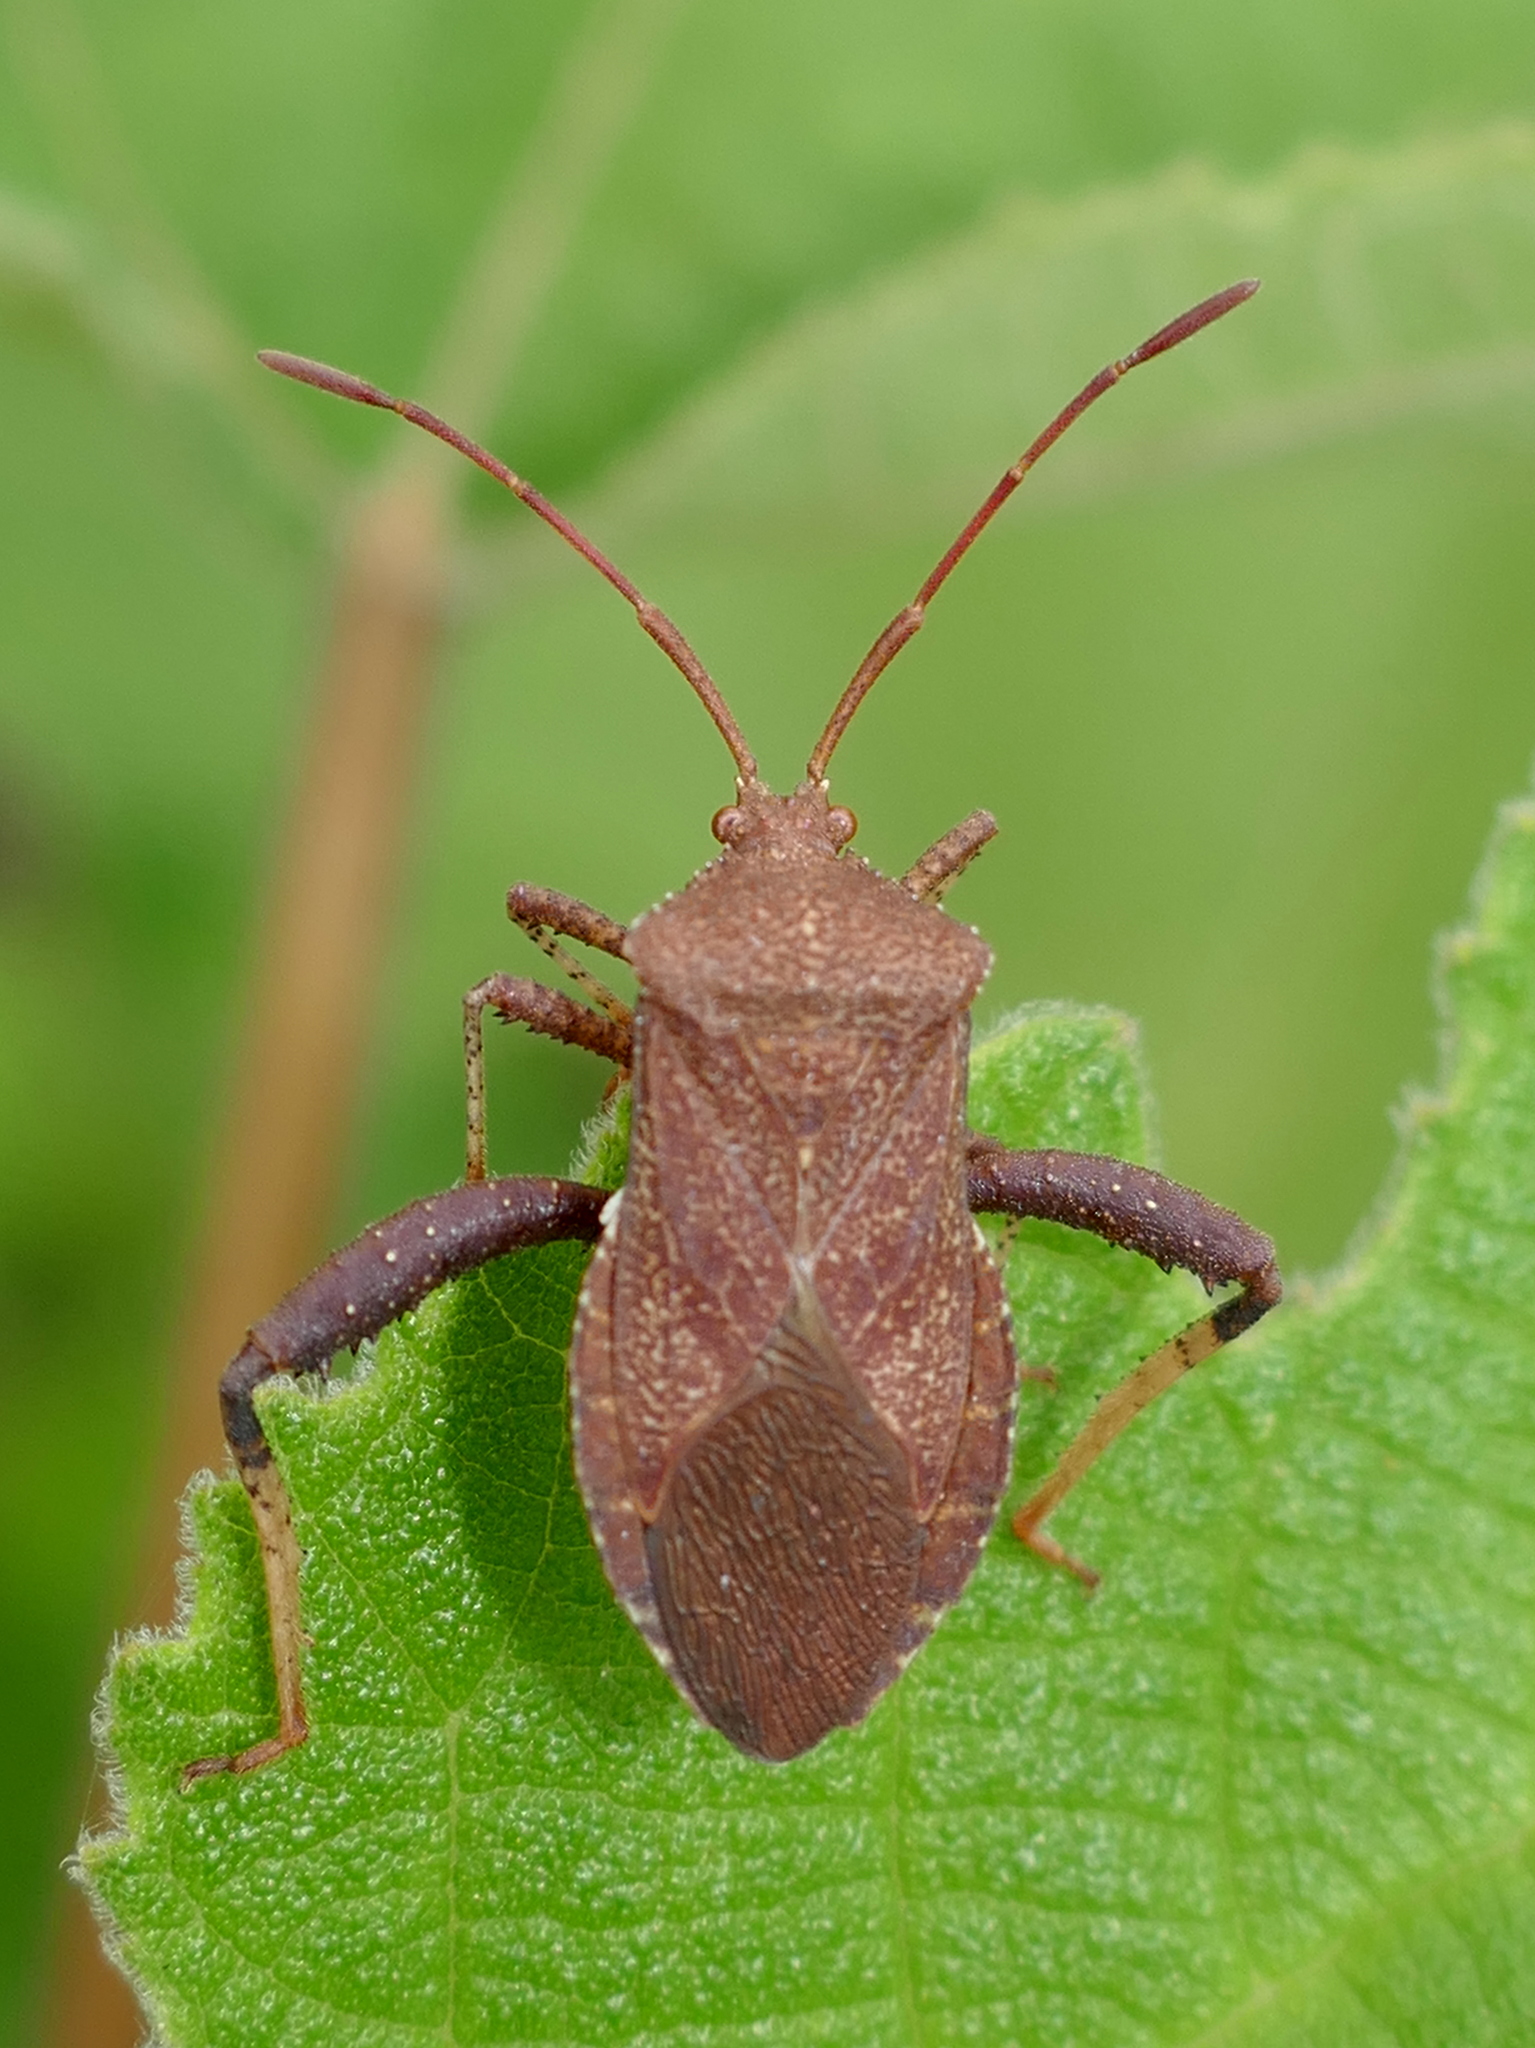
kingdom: Animalia
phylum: Arthropoda
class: Insecta
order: Hemiptera
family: Coreidae
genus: Euthochtha
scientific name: Euthochtha galeator
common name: Helmeted squash bug
